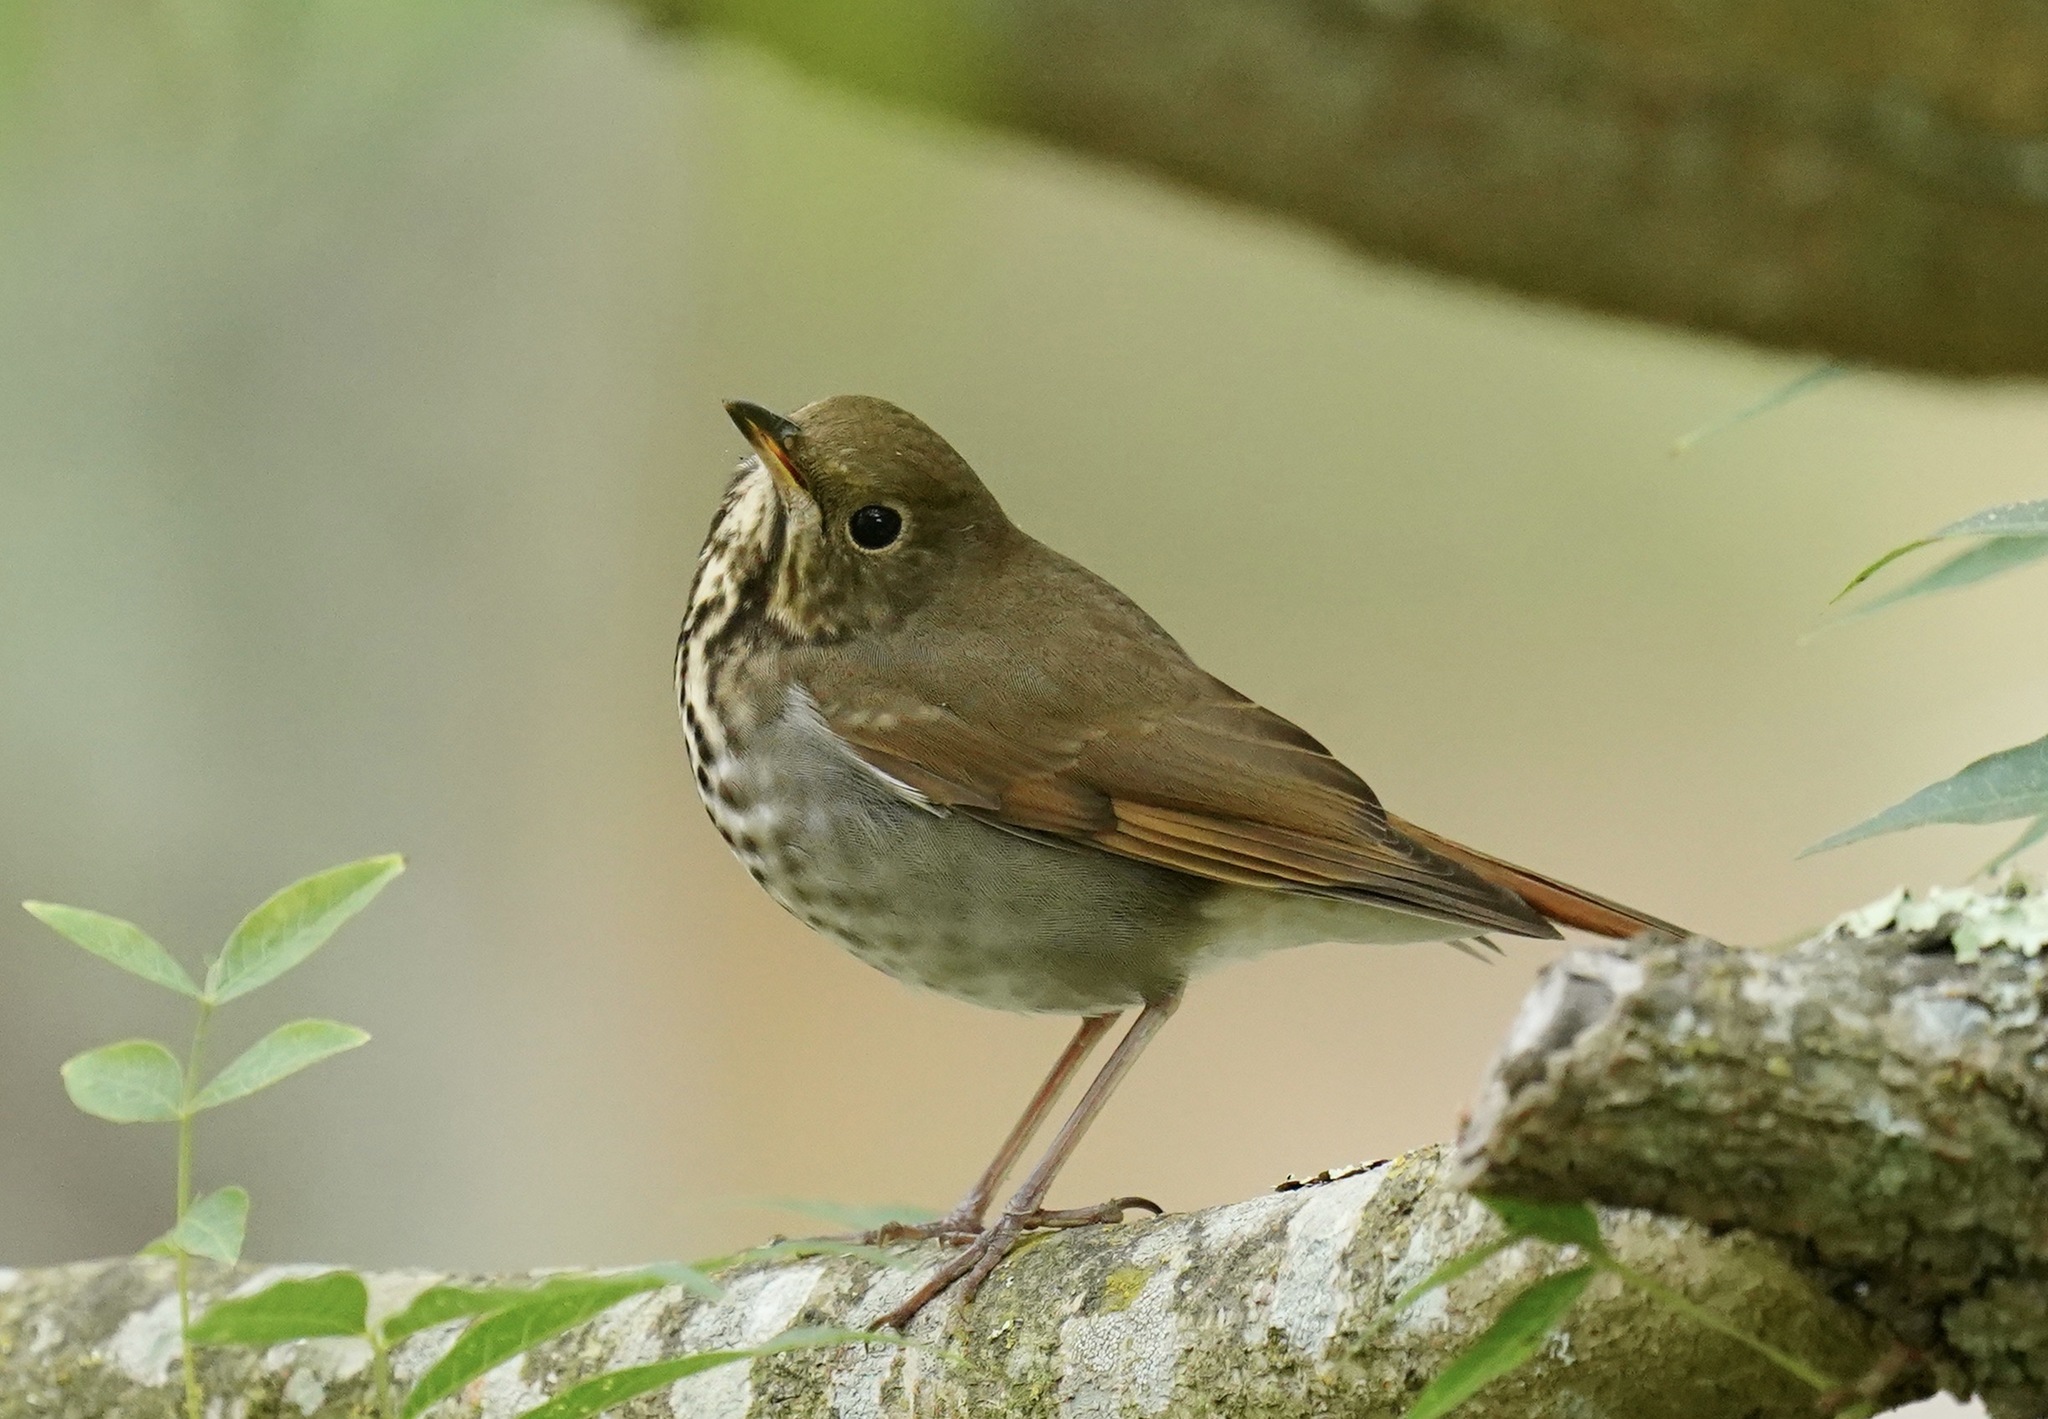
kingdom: Animalia
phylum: Chordata
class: Aves
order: Passeriformes
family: Turdidae
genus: Catharus
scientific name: Catharus guttatus
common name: Hermit thrush
